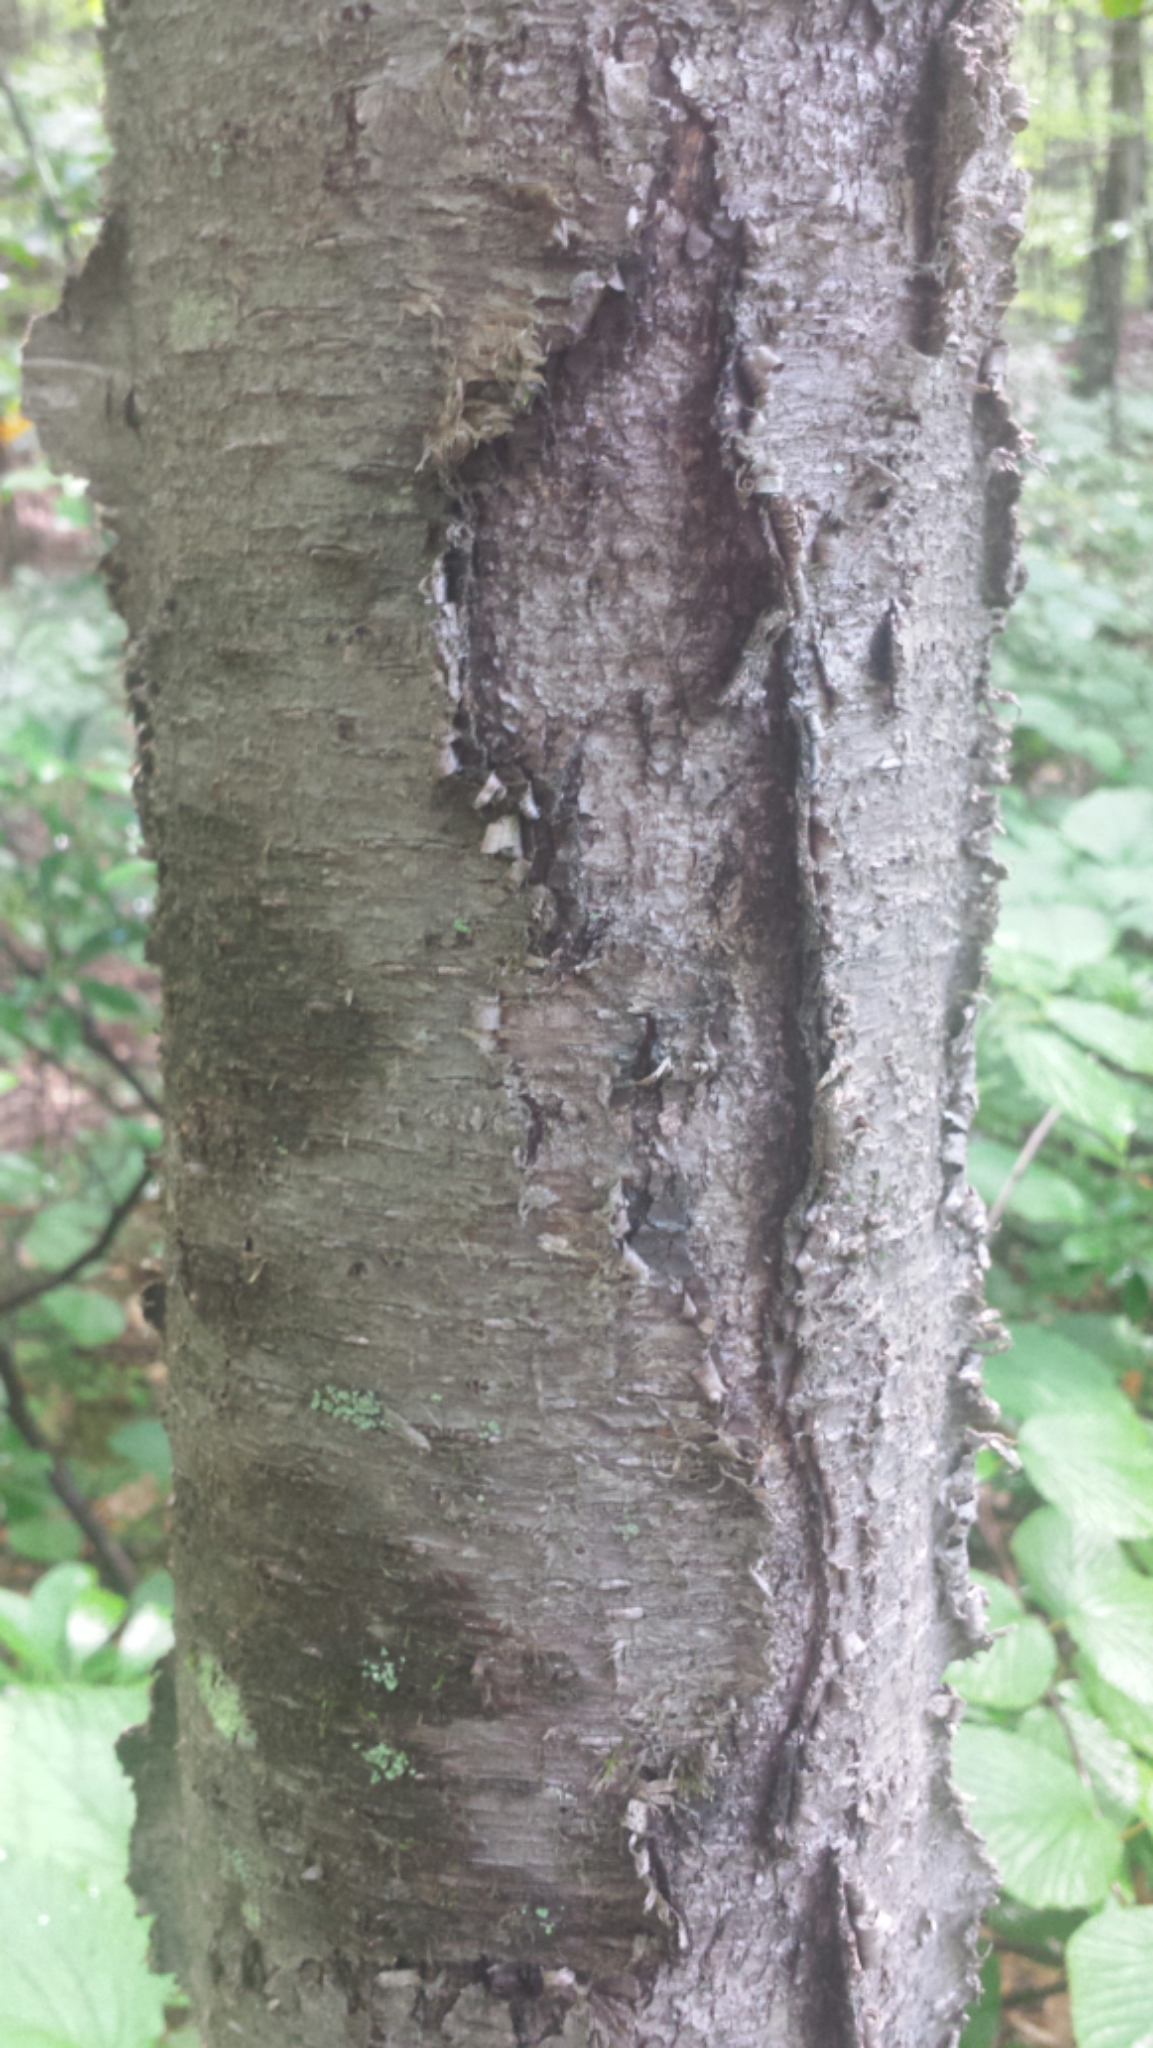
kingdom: Plantae
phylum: Tracheophyta
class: Magnoliopsida
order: Fagales
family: Betulaceae
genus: Betula
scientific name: Betula lenta
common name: Black birch
